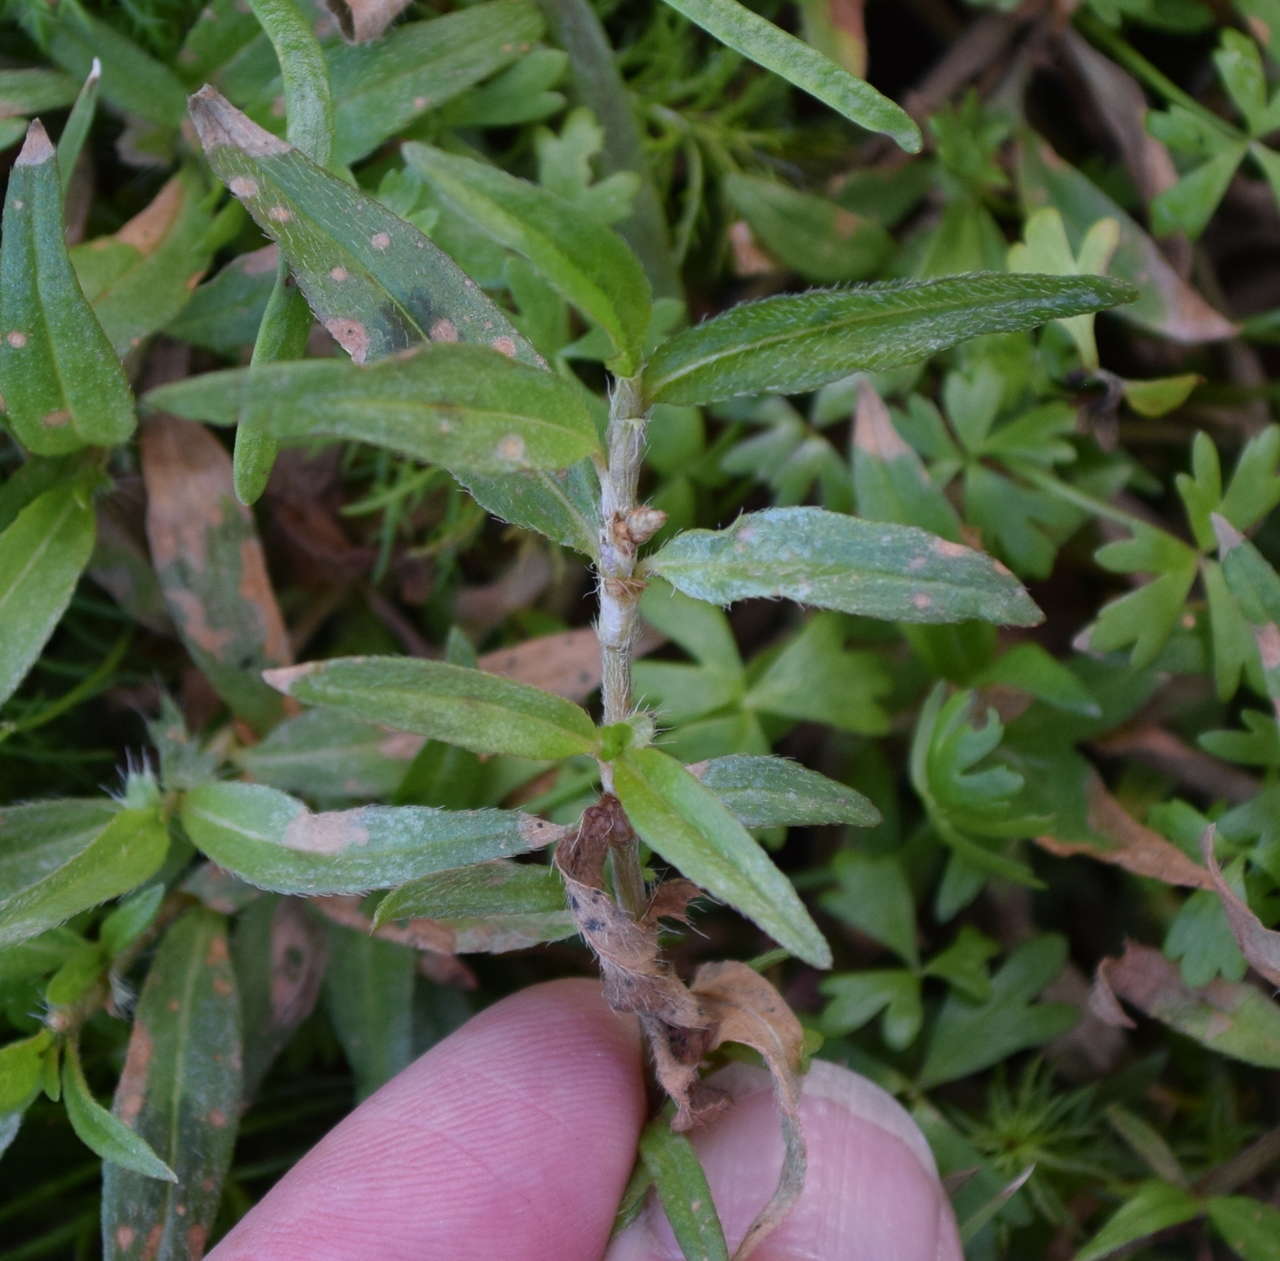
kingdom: Plantae
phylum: Tracheophyta
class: Magnoliopsida
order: Caryophyllales
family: Polygonaceae
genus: Persicaria
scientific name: Persicaria prostrata
